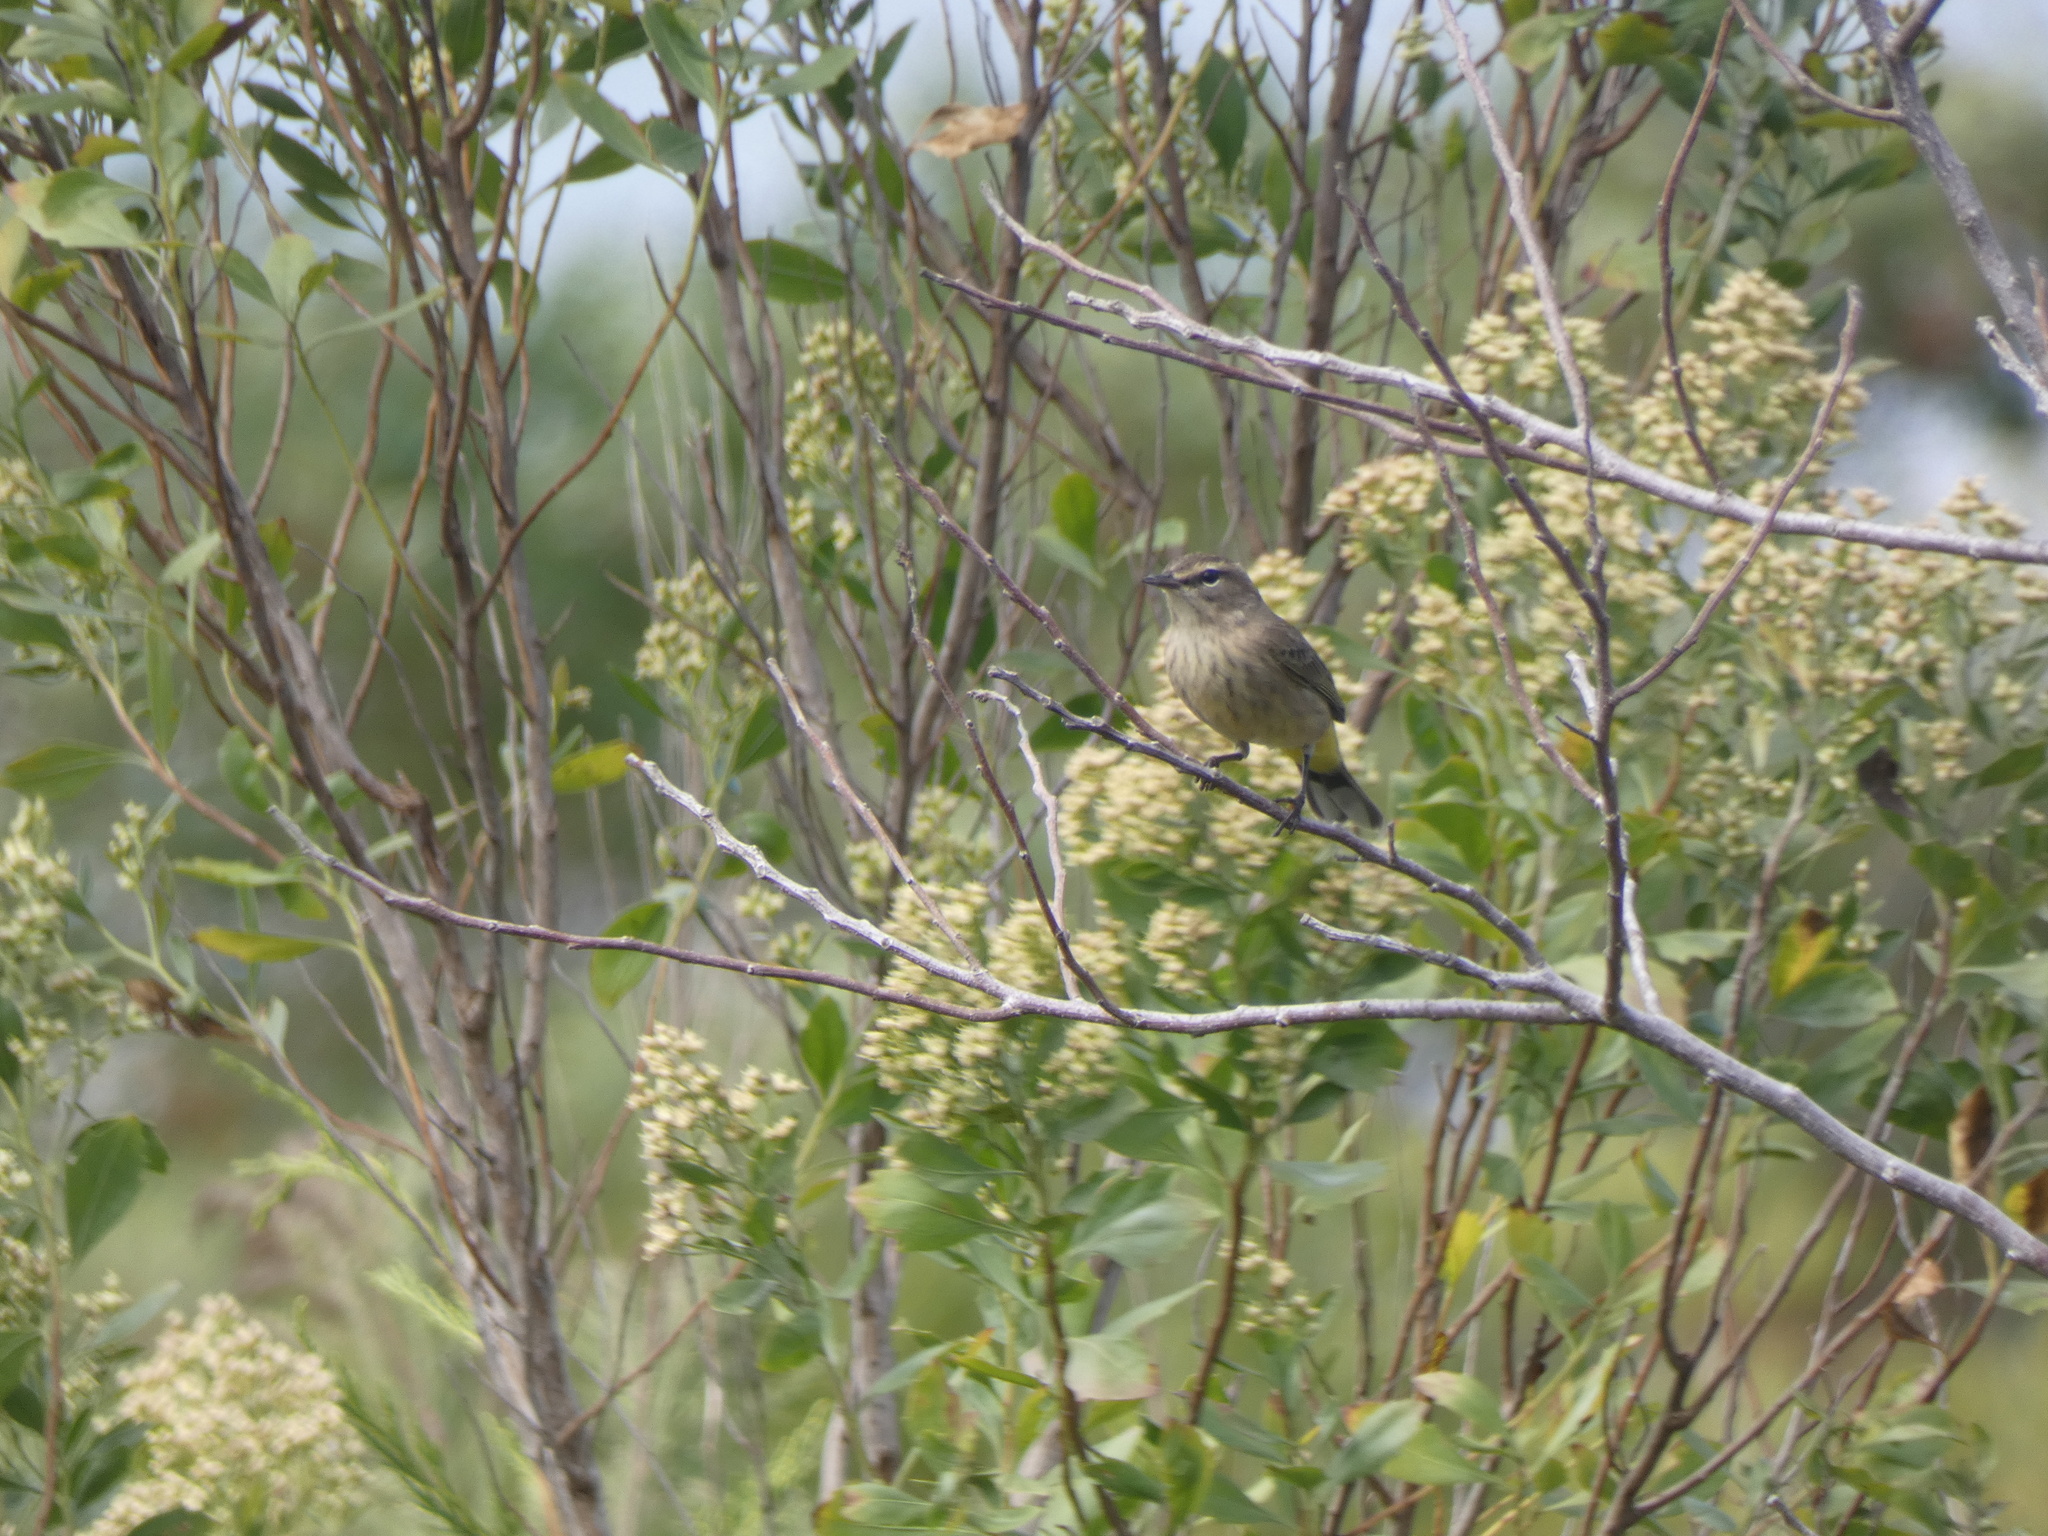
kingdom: Animalia
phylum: Chordata
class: Aves
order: Passeriformes
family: Parulidae
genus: Setophaga
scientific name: Setophaga palmarum
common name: Palm warbler
